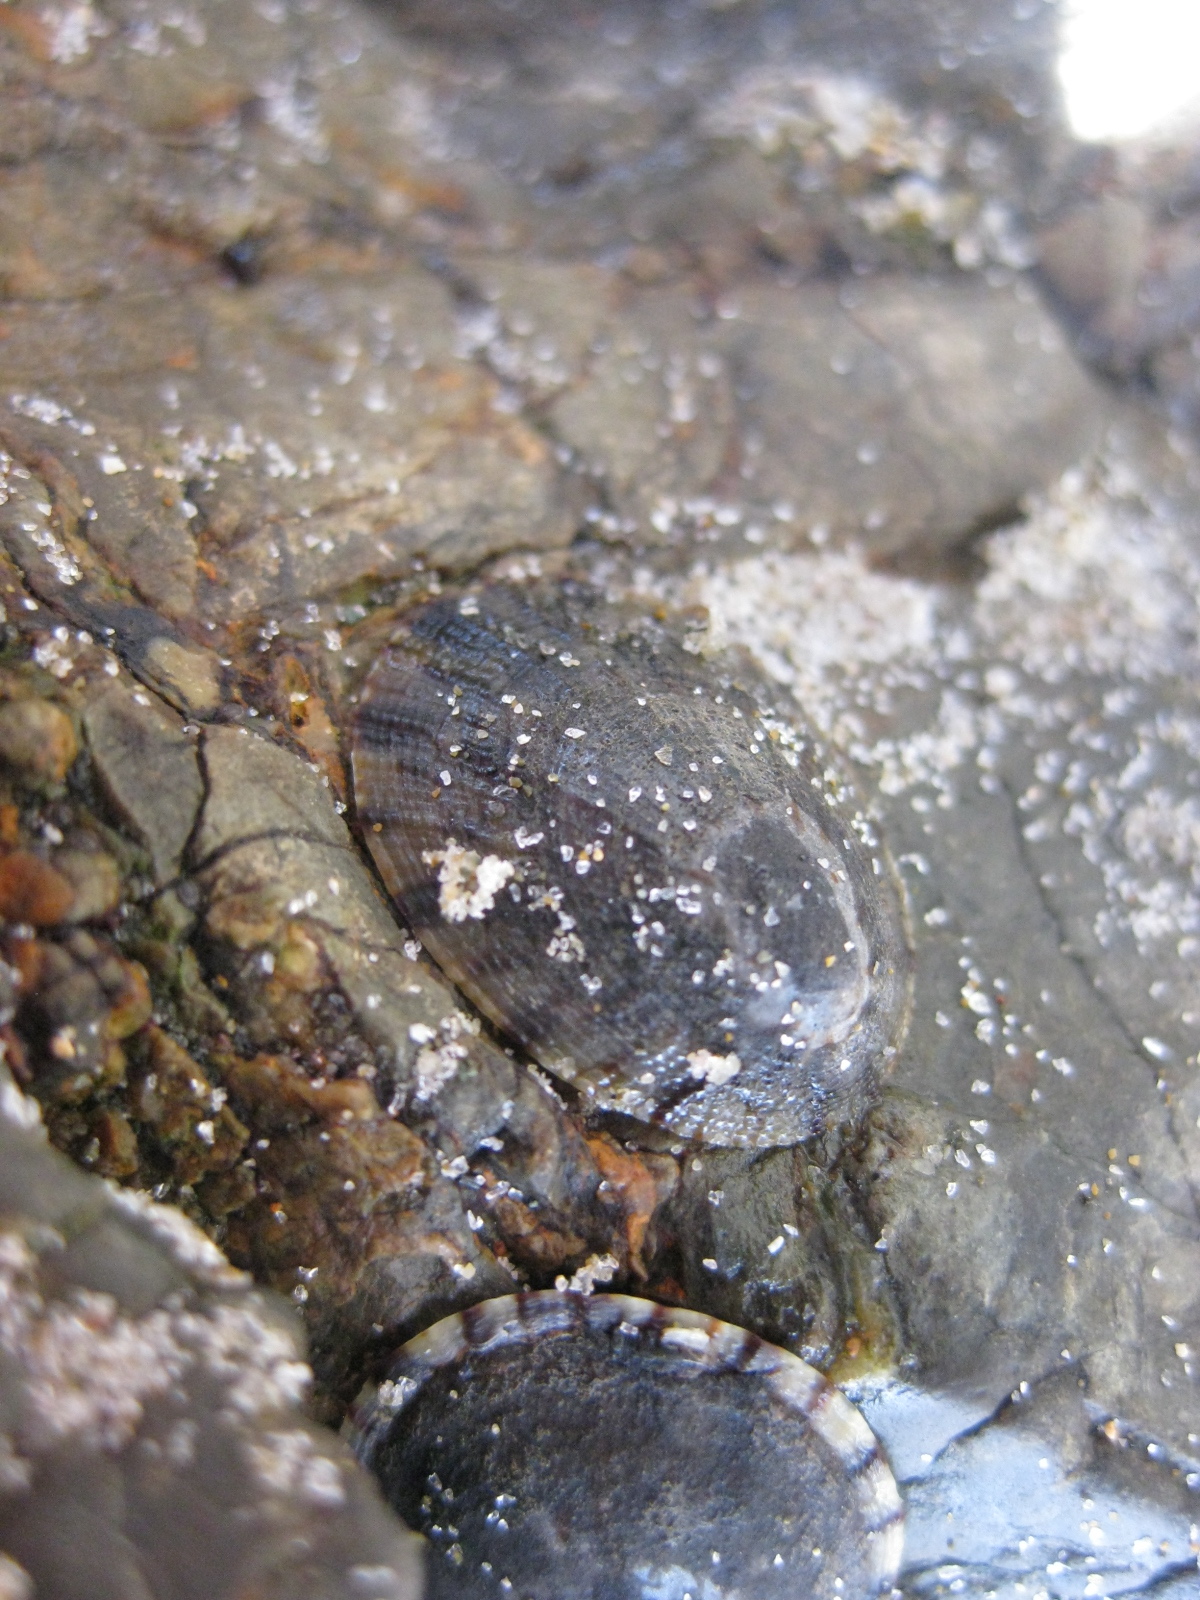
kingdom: Animalia
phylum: Mollusca
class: Gastropoda
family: Nacellidae
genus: Cellana
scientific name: Cellana radians
